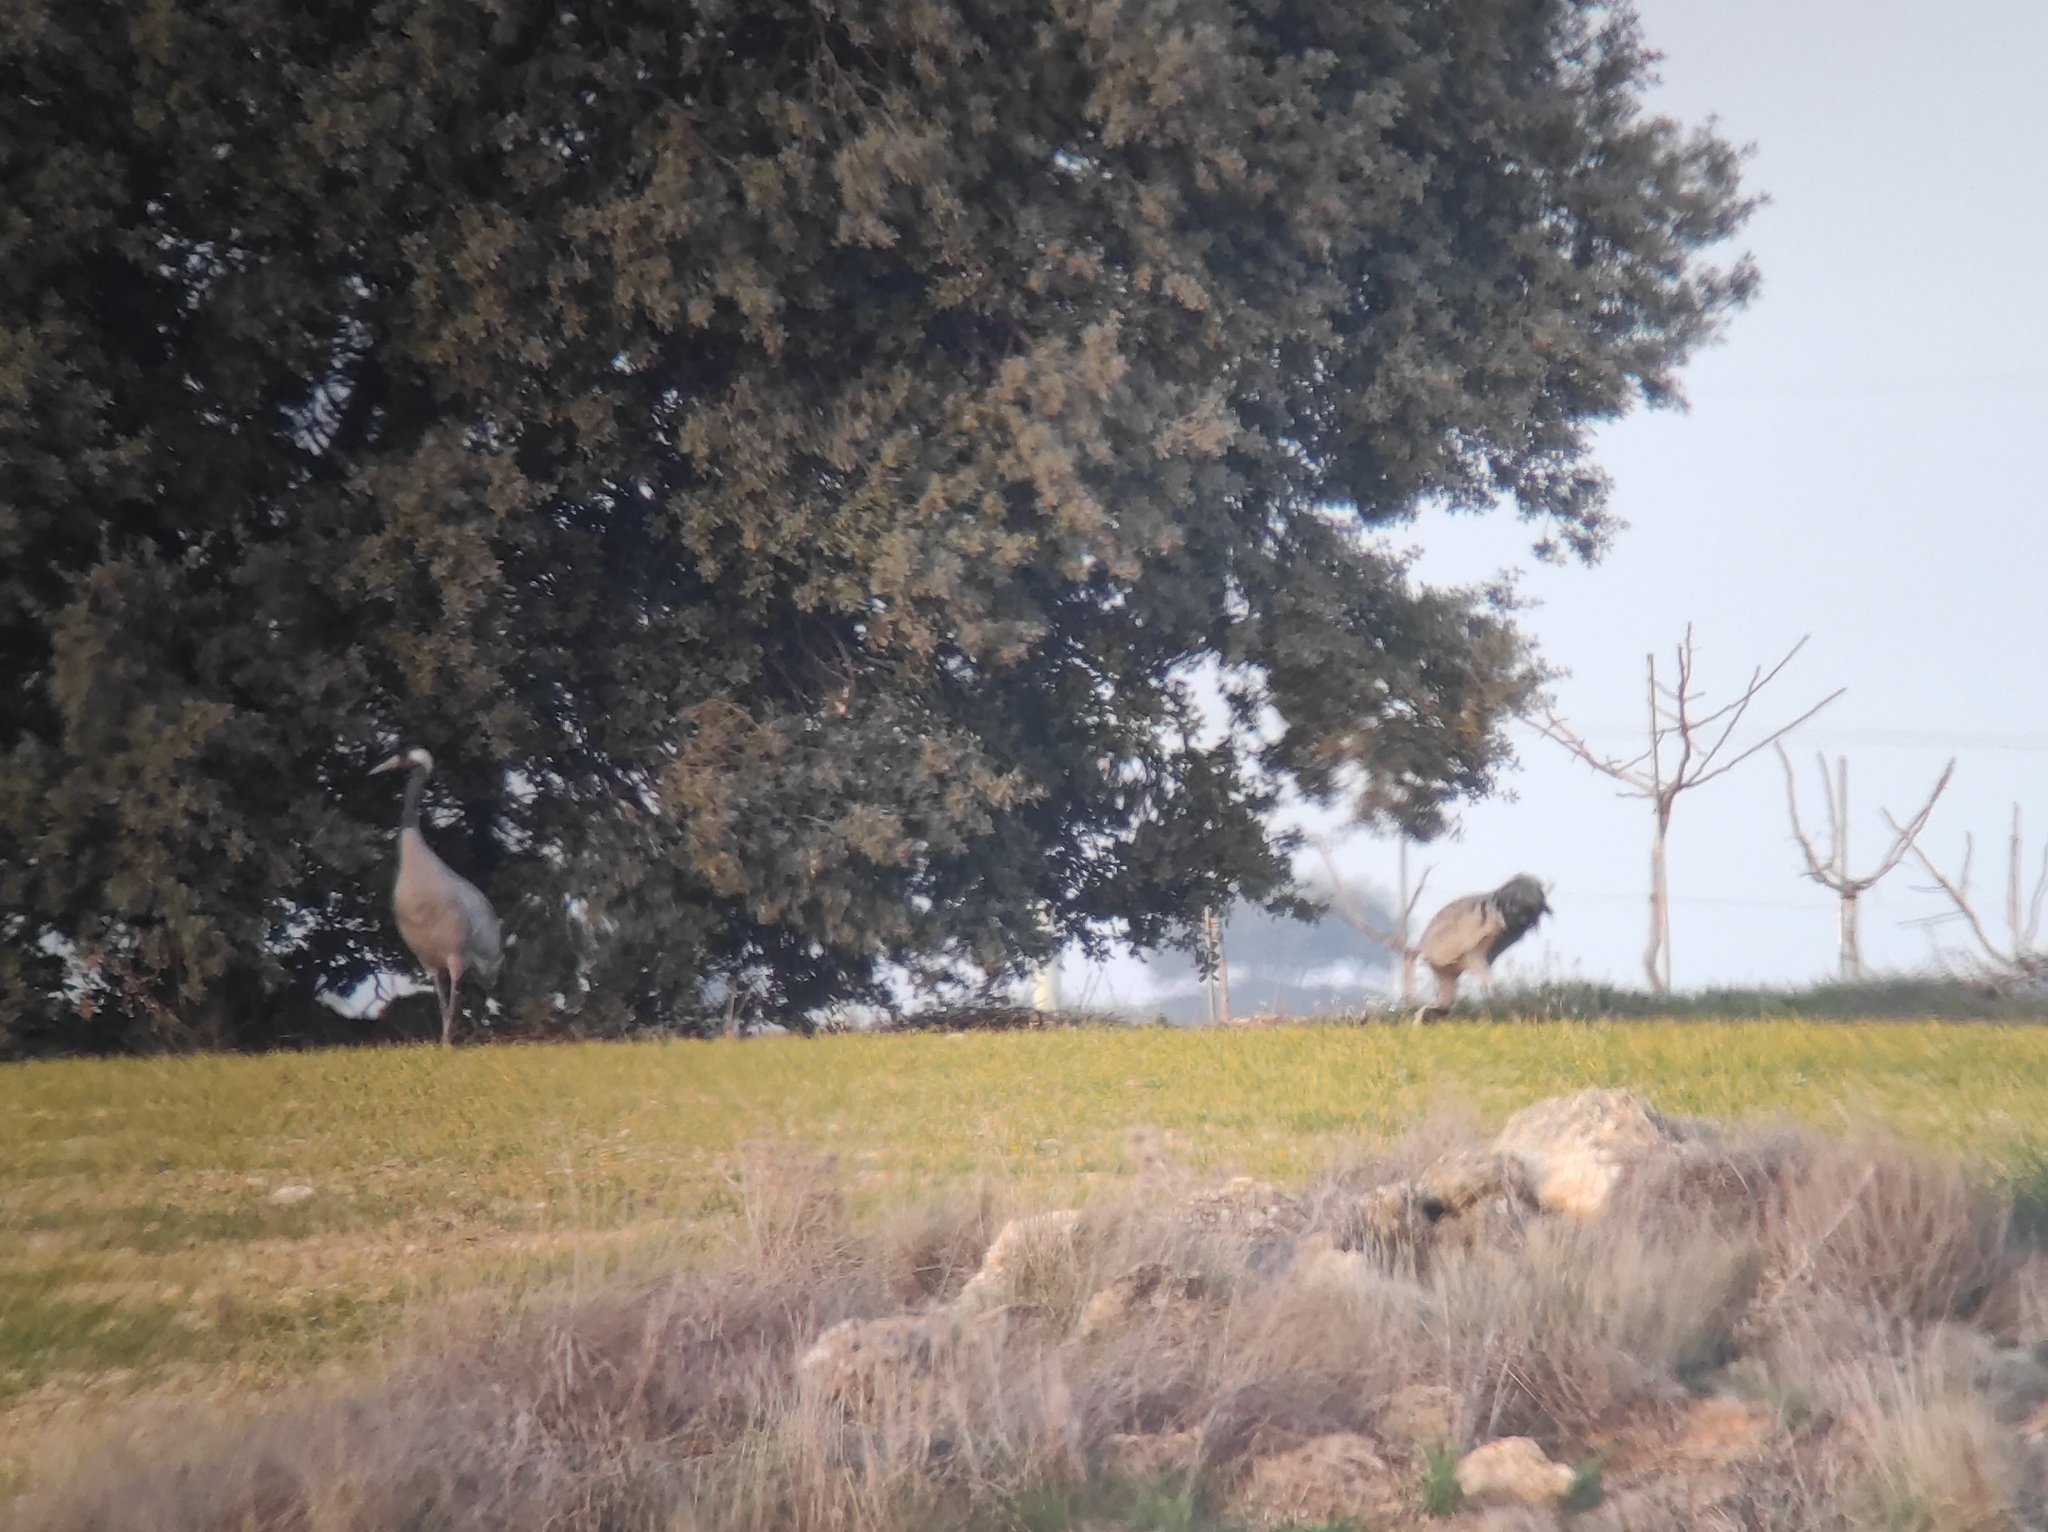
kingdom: Animalia
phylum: Chordata
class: Aves
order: Gruiformes
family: Gruidae
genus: Grus
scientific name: Grus grus
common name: Common crane
